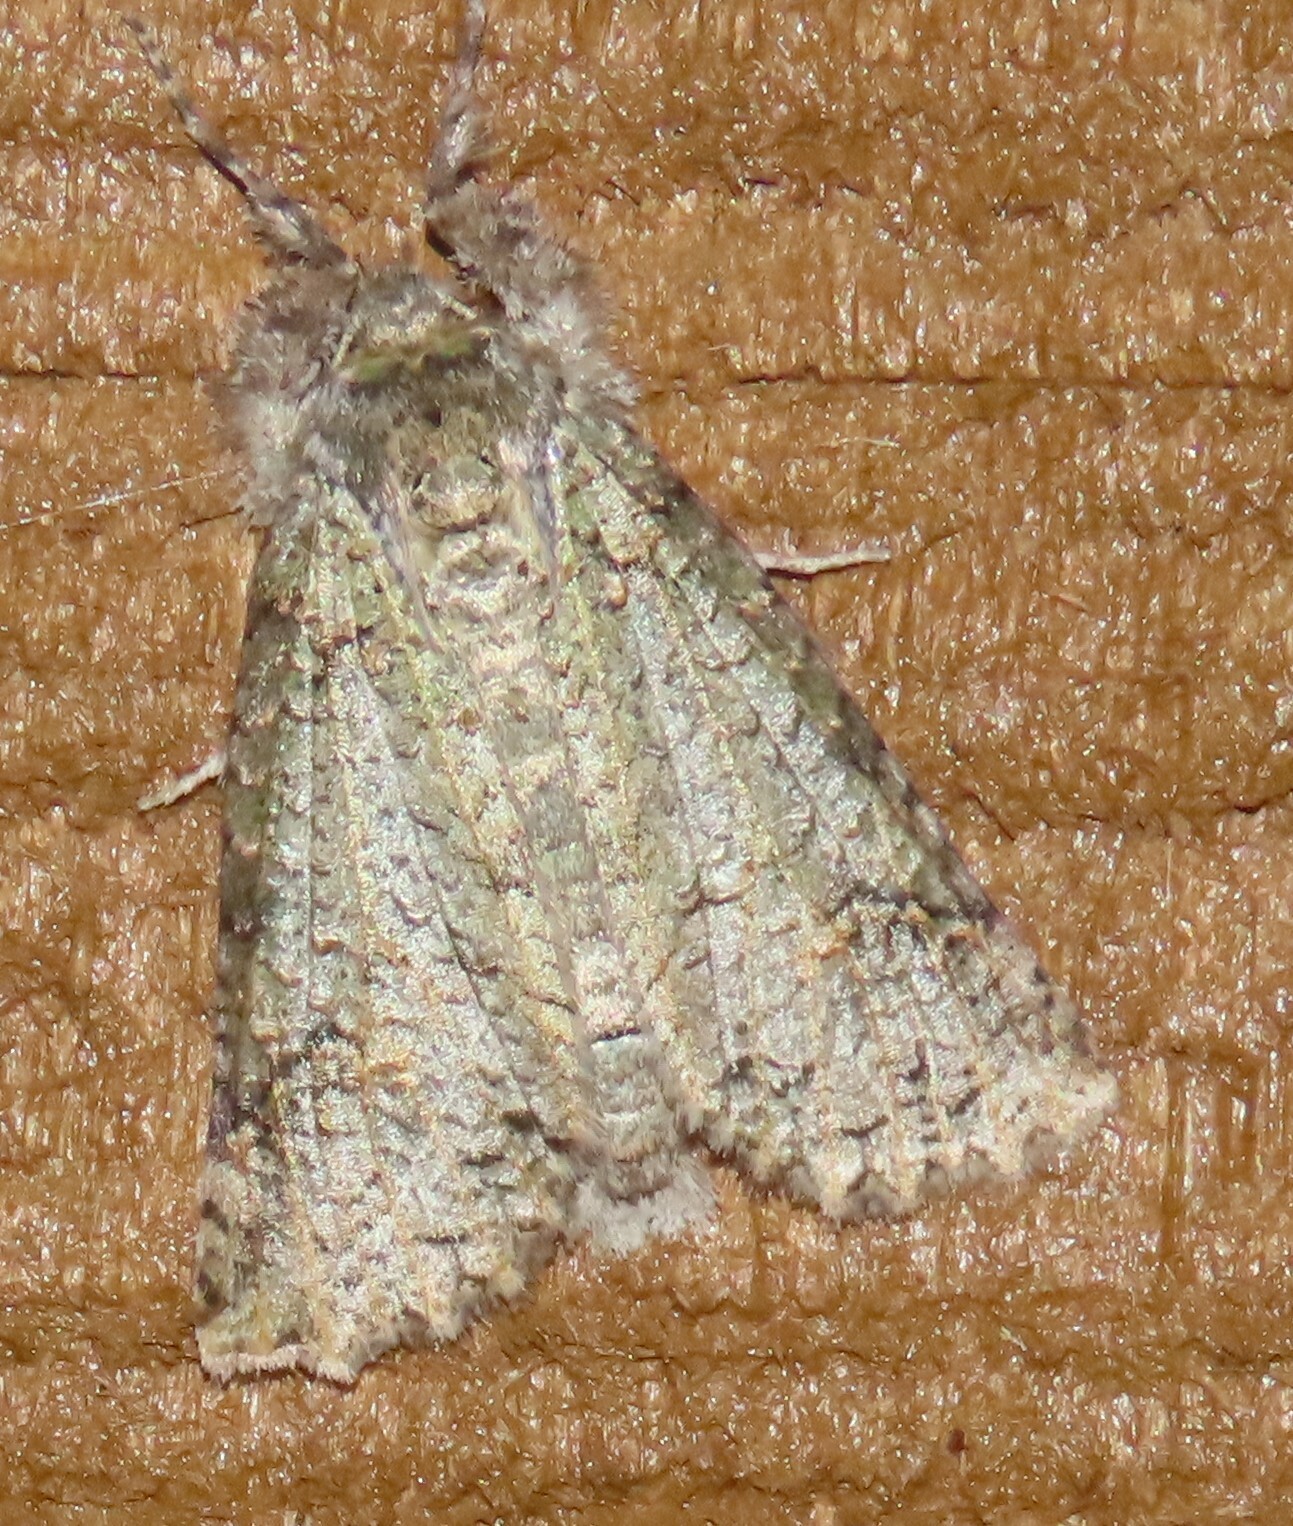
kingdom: Animalia
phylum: Arthropoda
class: Insecta
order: Lepidoptera
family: Geometridae
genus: Declana
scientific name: Declana floccosa
